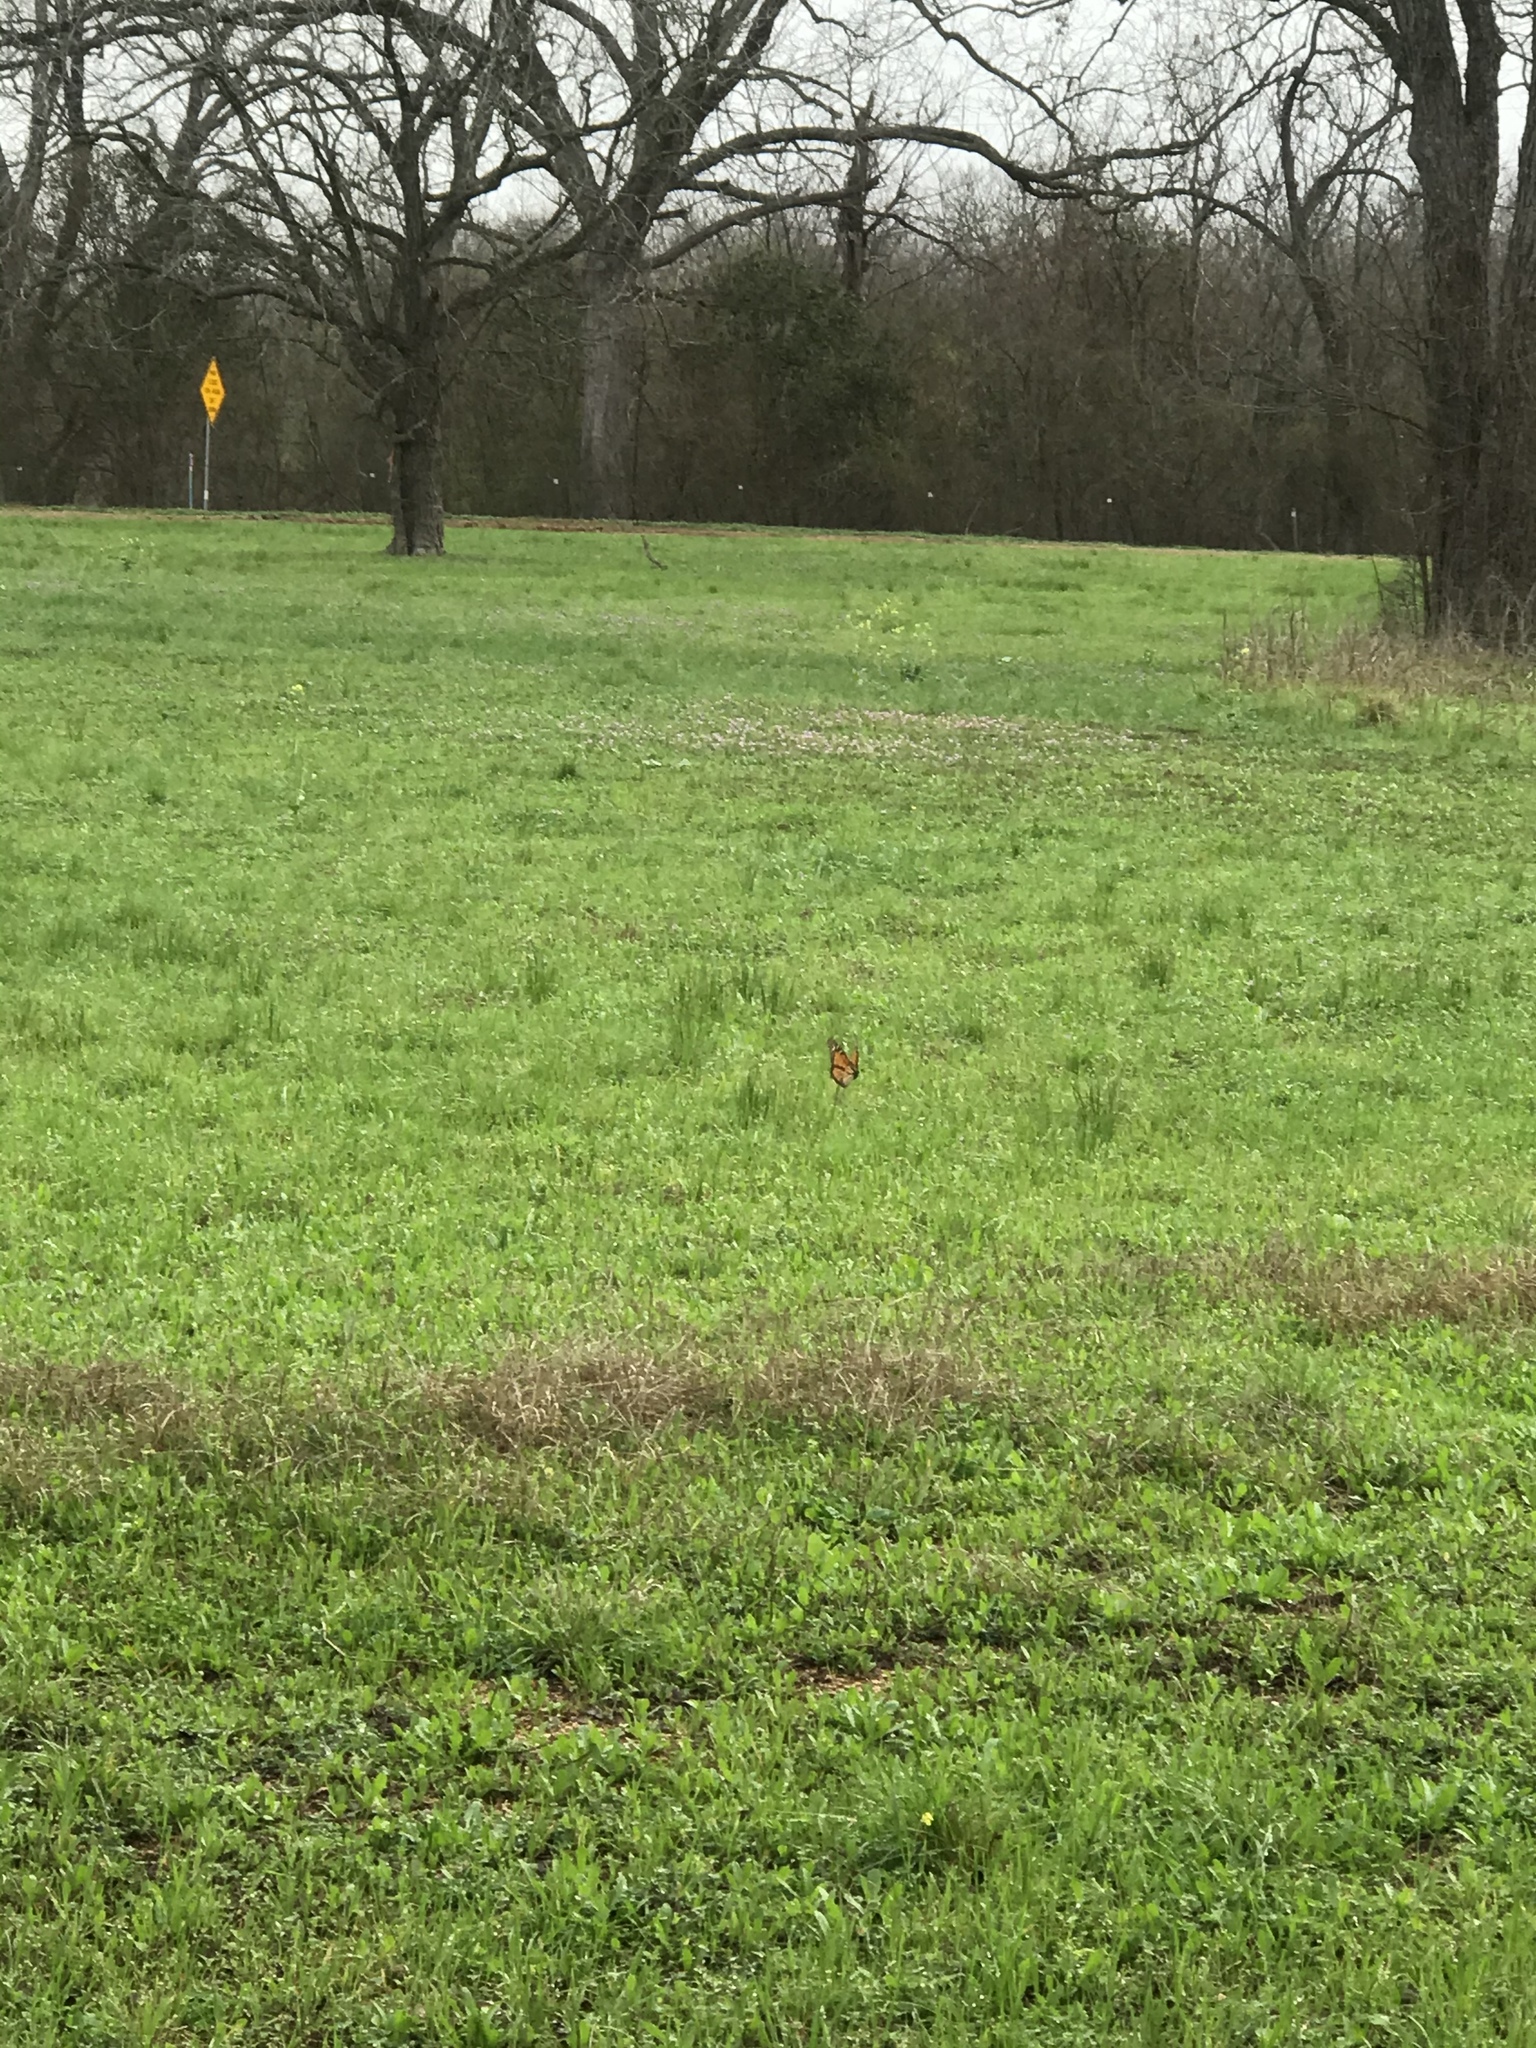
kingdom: Animalia
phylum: Arthropoda
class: Insecta
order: Lepidoptera
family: Nymphalidae
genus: Danaus
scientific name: Danaus plexippus
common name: Monarch
